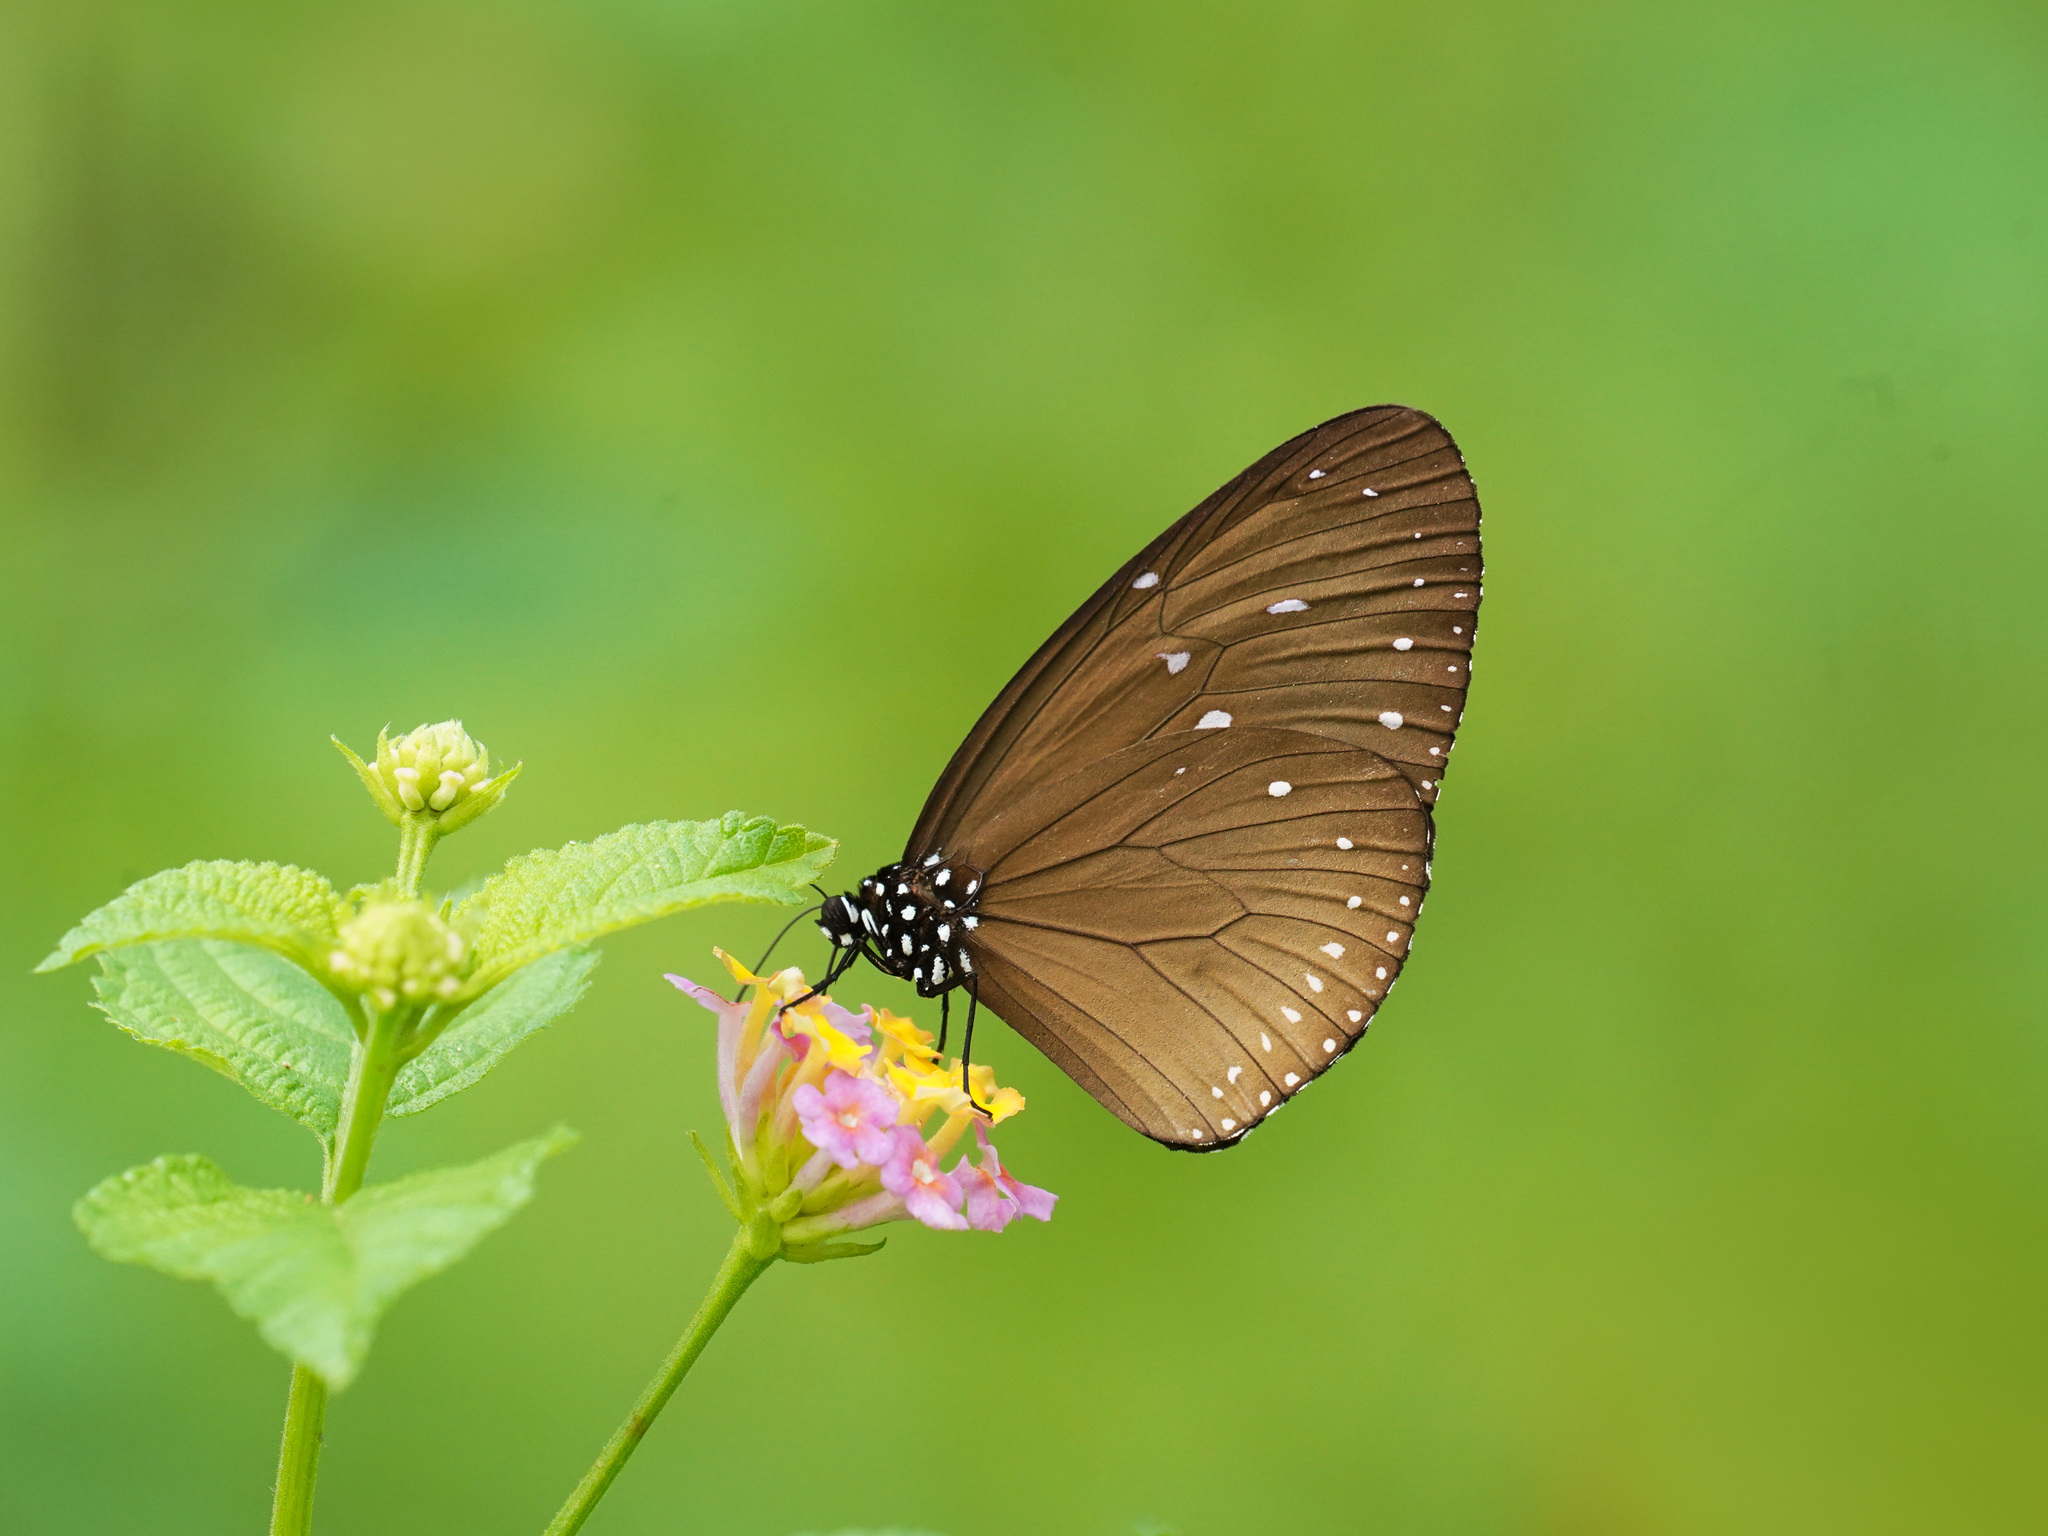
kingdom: Animalia
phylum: Arthropoda
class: Insecta
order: Lepidoptera
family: Nymphalidae
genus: Euploea
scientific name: Euploea tulliolus
